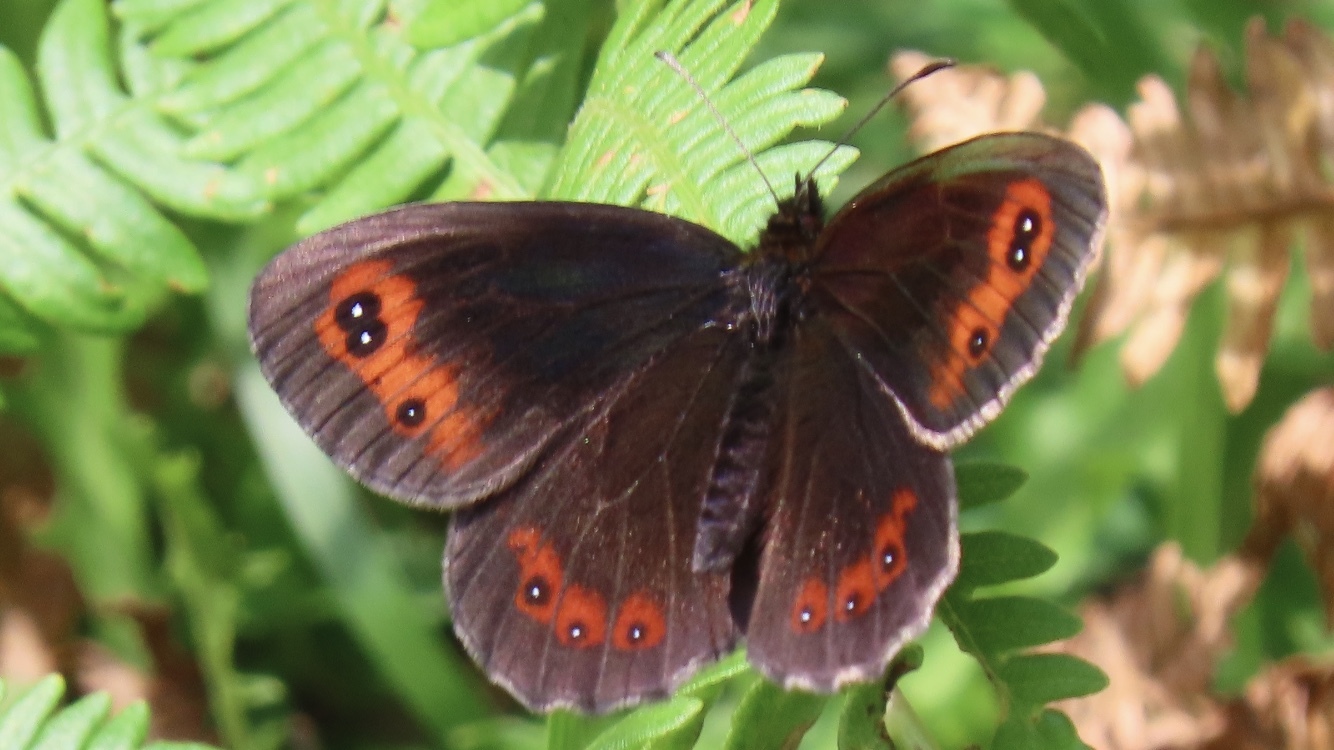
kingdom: Animalia
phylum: Arthropoda
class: Insecta
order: Lepidoptera
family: Nymphalidae
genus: Erebia
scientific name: Erebia aethiops
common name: Scotch argus
